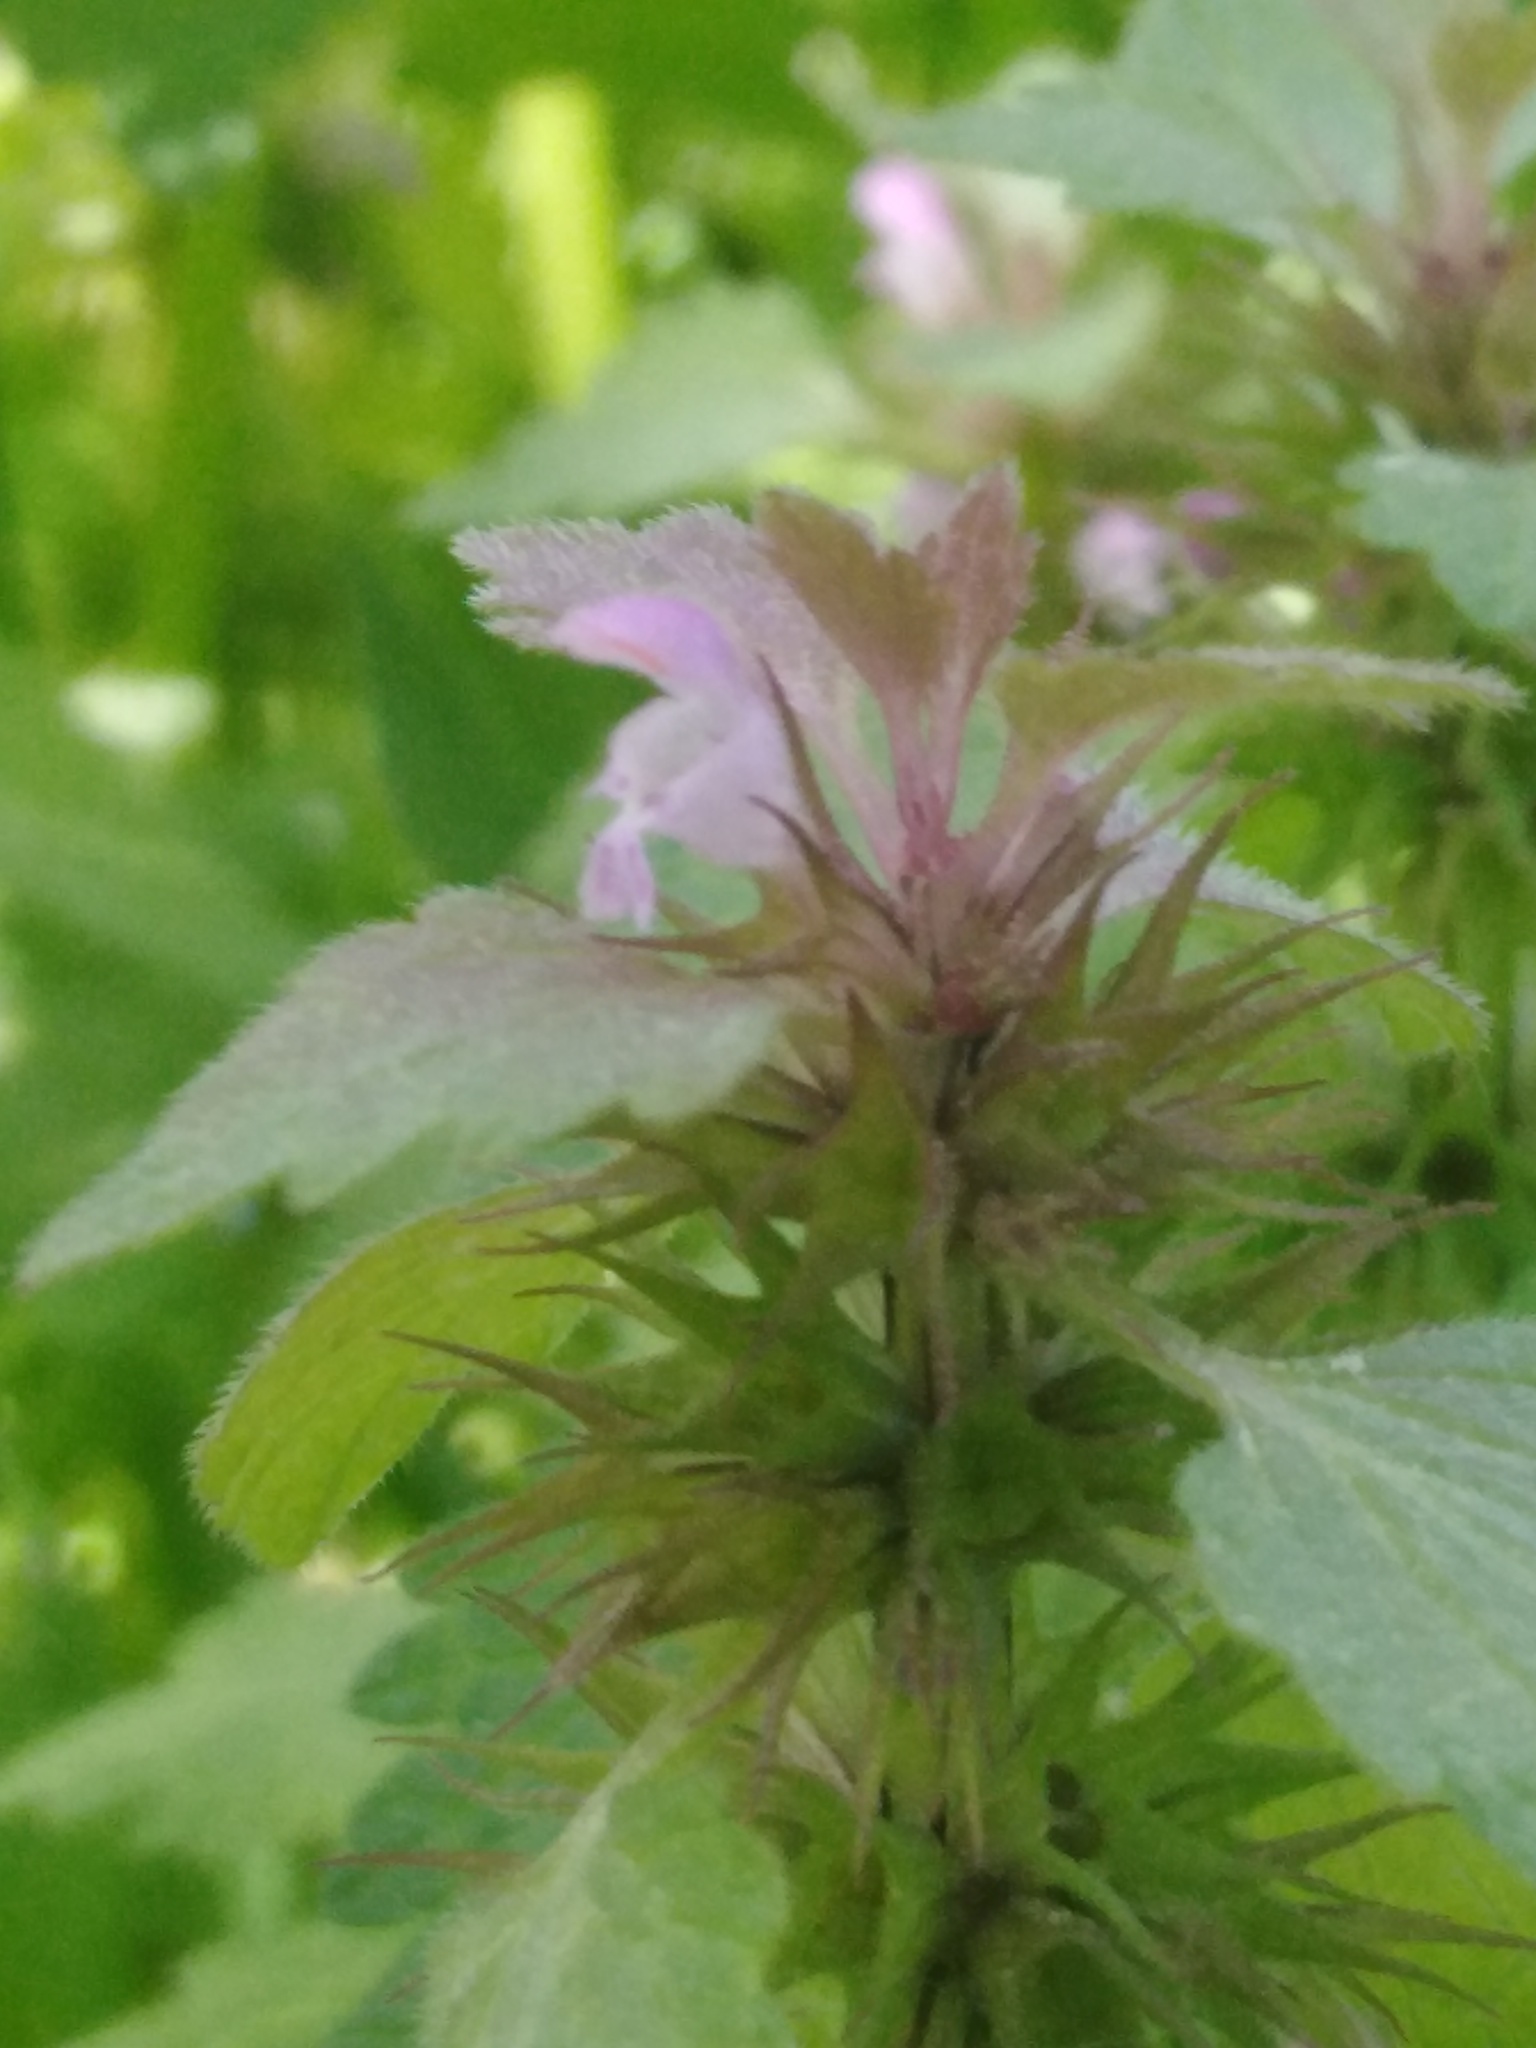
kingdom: Plantae
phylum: Tracheophyta
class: Magnoliopsida
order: Lamiales
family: Lamiaceae
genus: Lamium
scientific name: Lamium purpureum
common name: Red dead-nettle
